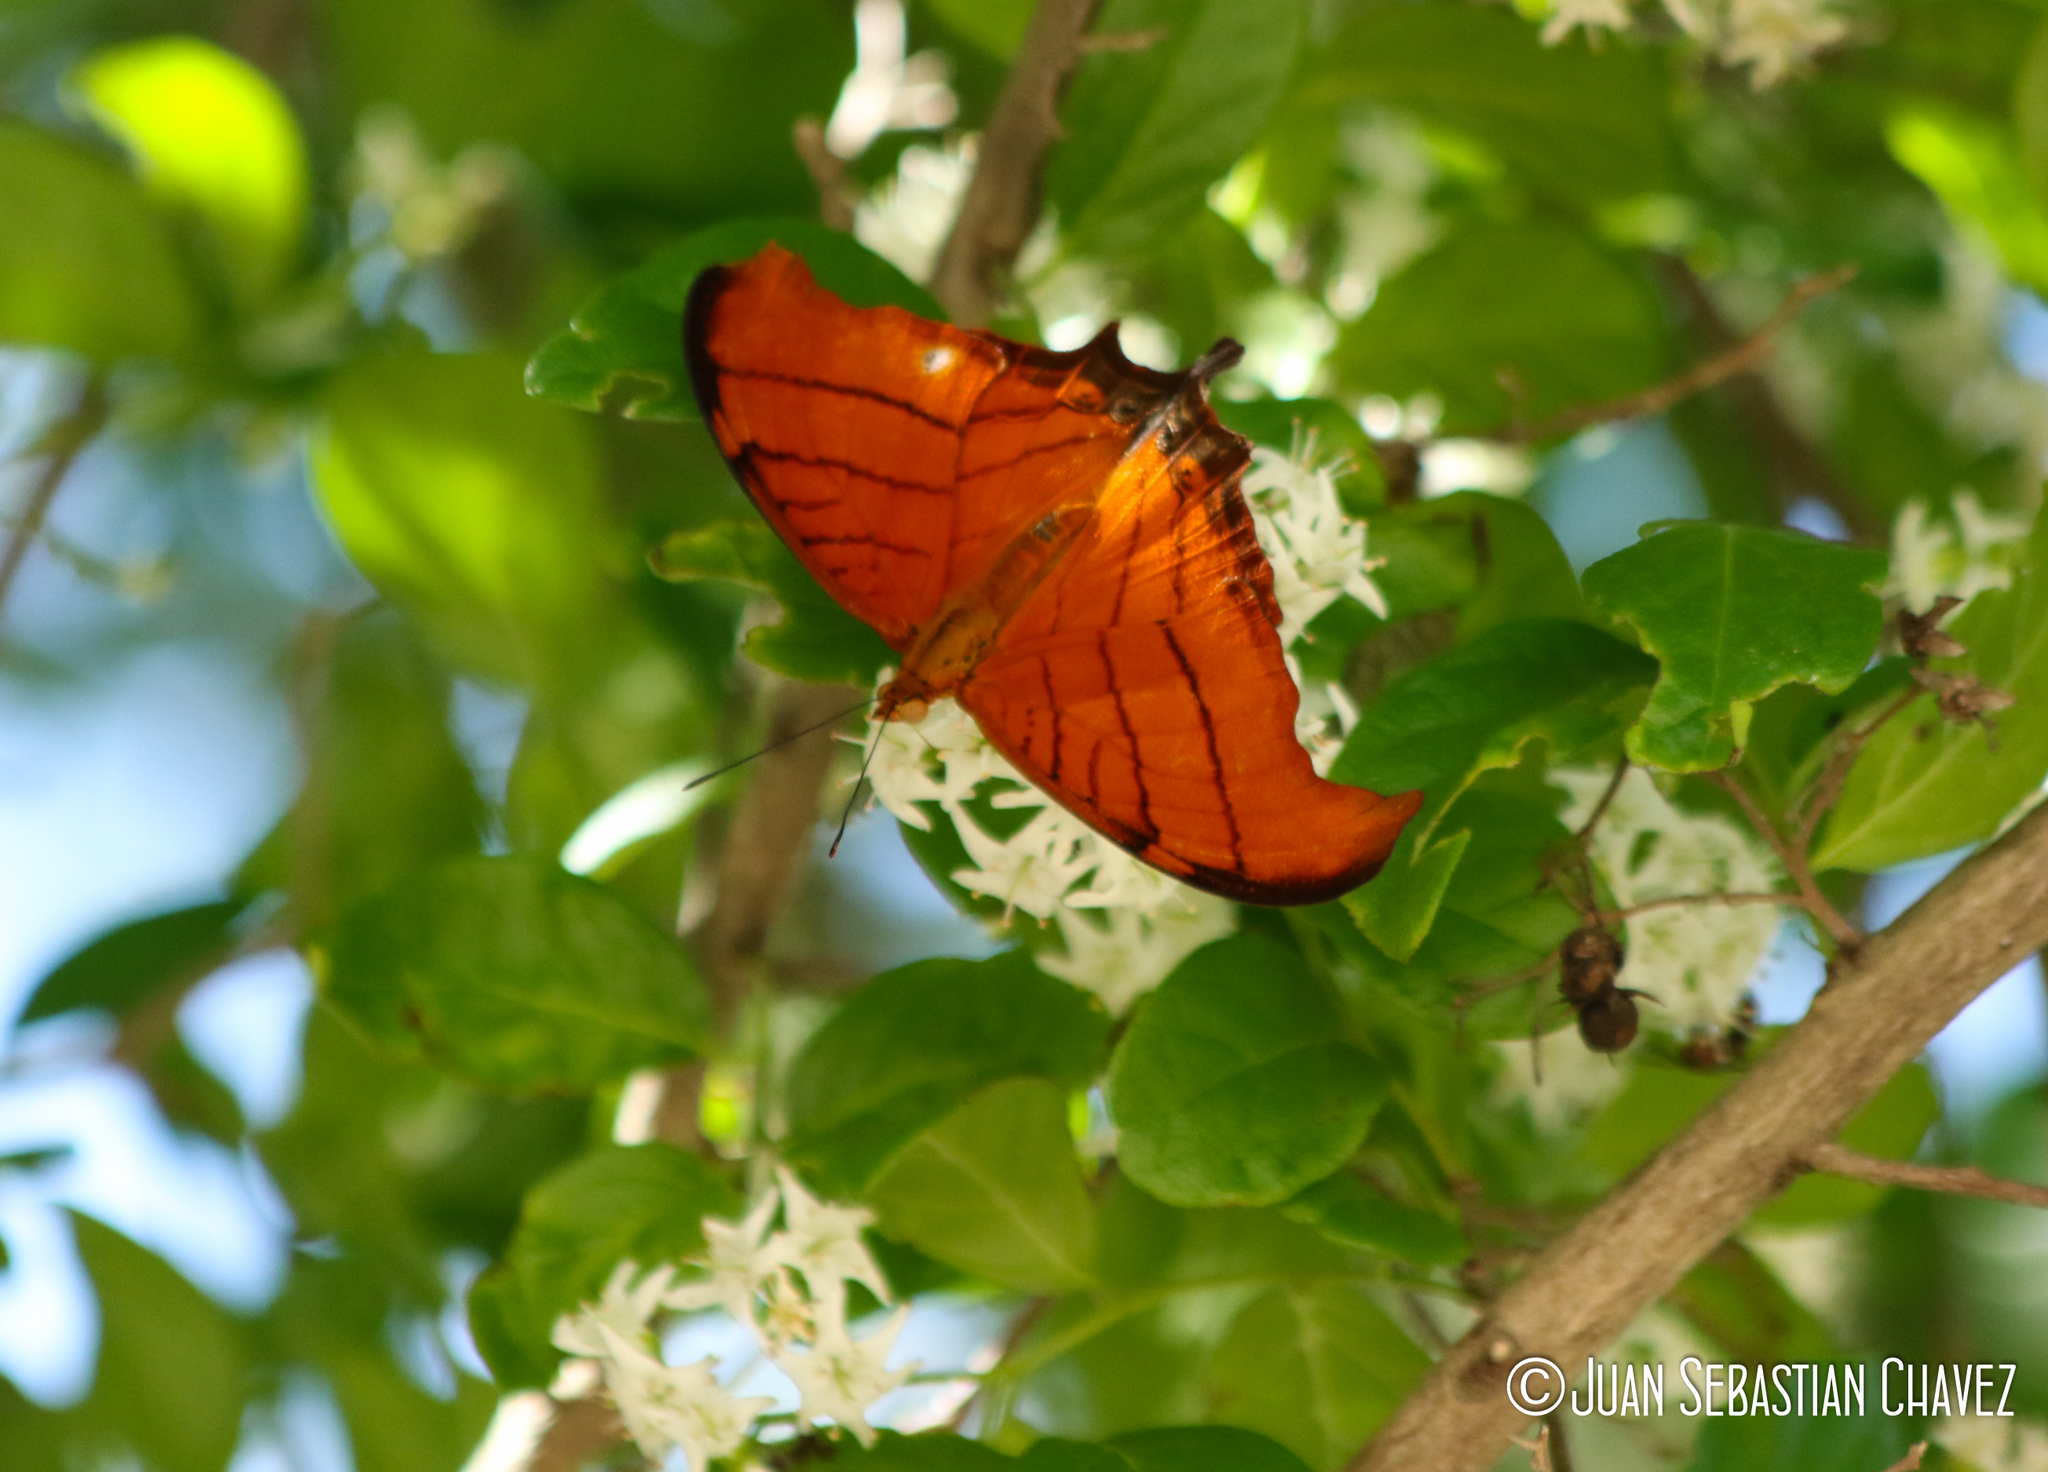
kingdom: Animalia
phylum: Arthropoda
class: Insecta
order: Lepidoptera
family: Nymphalidae
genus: Marpesia
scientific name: Marpesia petreus
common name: Red dagger wing
